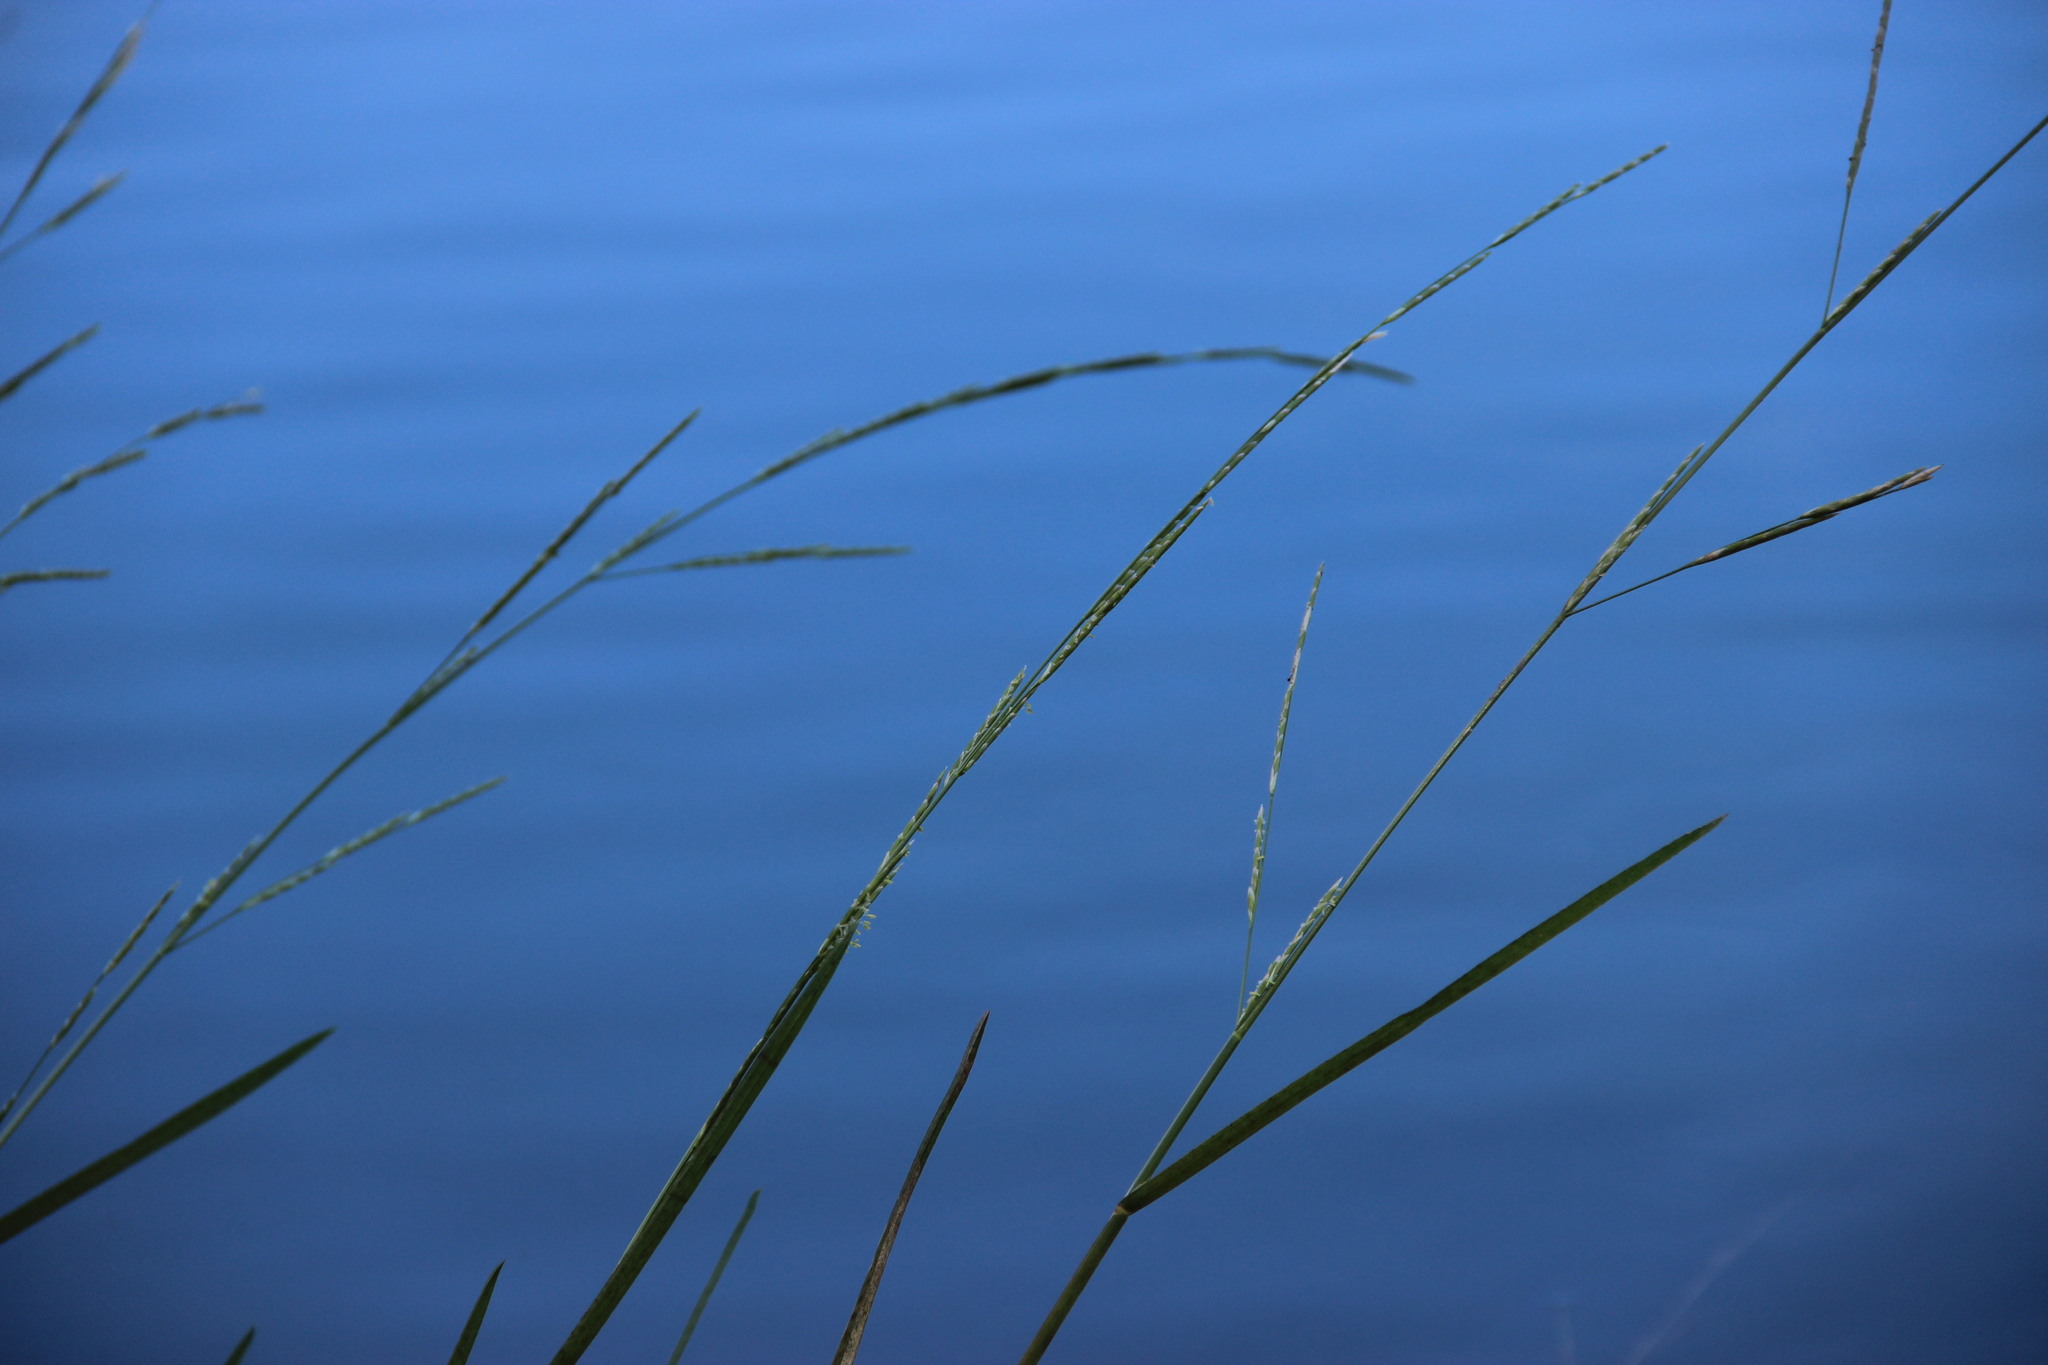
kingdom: Plantae
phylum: Tracheophyta
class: Liliopsida
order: Poales
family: Poaceae
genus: Glyceria
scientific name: Glyceria fluitans
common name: Floating sweet-grass
